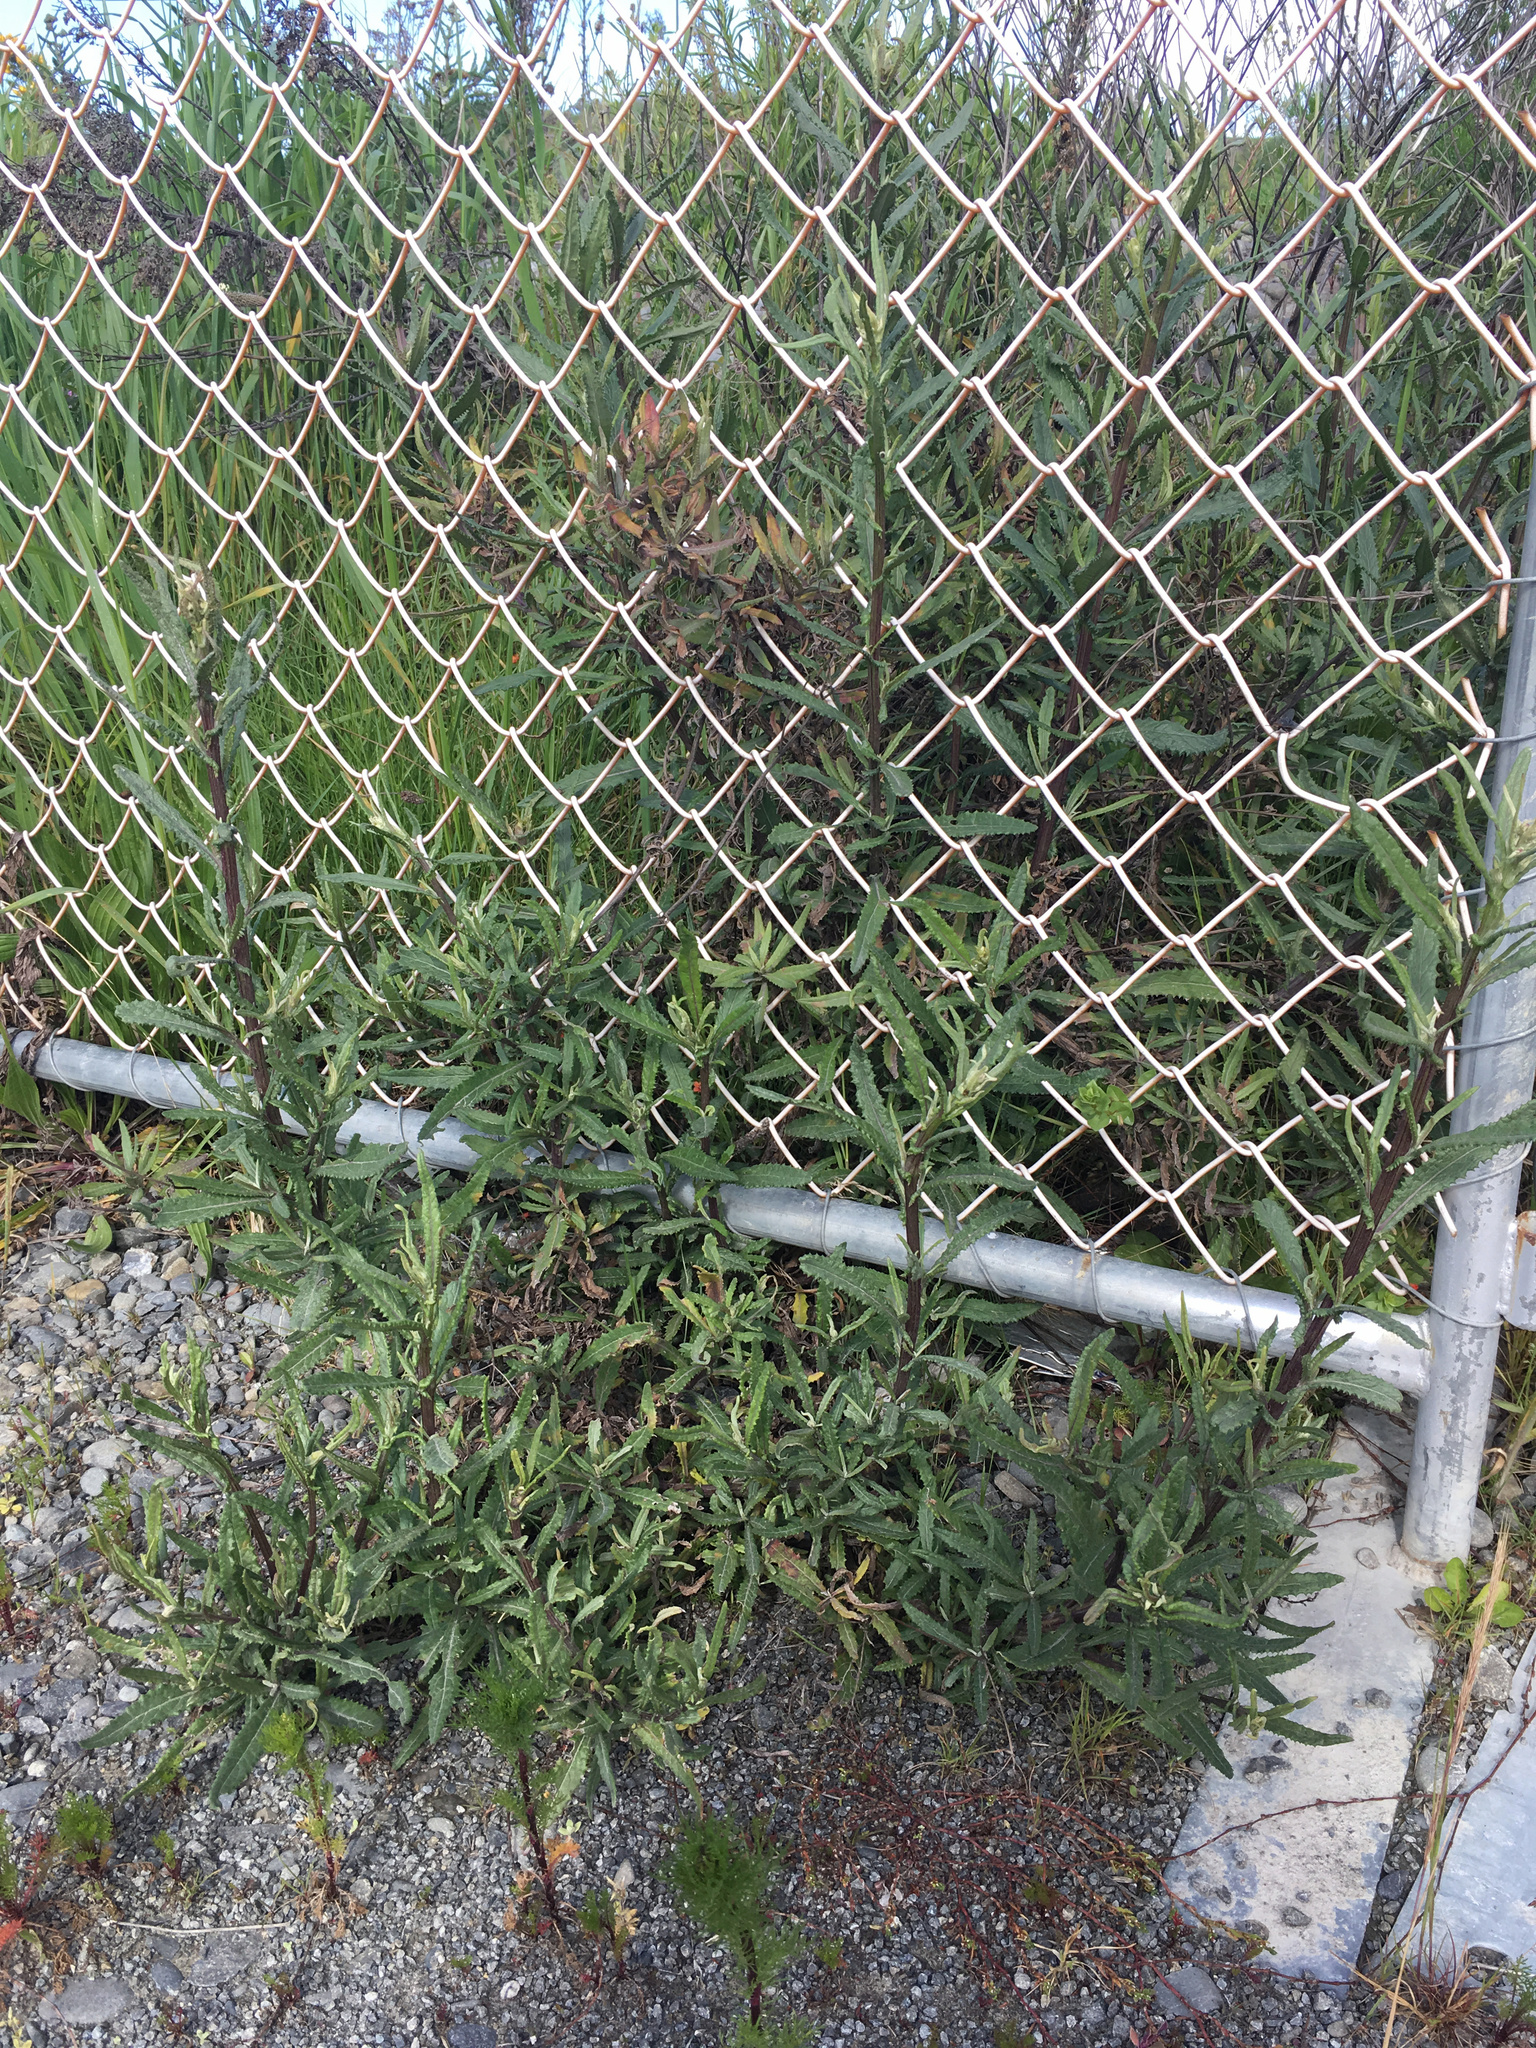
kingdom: Plantae
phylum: Tracheophyta
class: Magnoliopsida
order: Asterales
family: Asteraceae
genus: Senecio
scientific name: Senecio minimus
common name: Toothed fireweed
